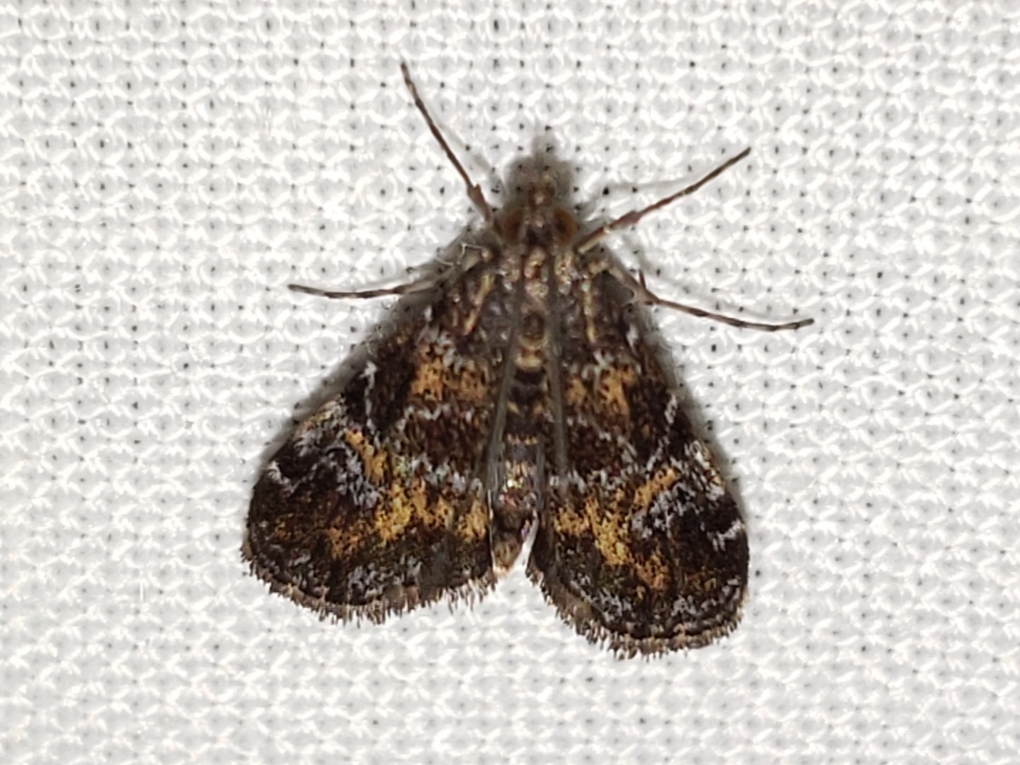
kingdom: Animalia
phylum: Arthropoda
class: Insecta
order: Lepidoptera
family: Crambidae
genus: Elophila
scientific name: Elophila obliteralis
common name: Waterlily leafcutter moth
